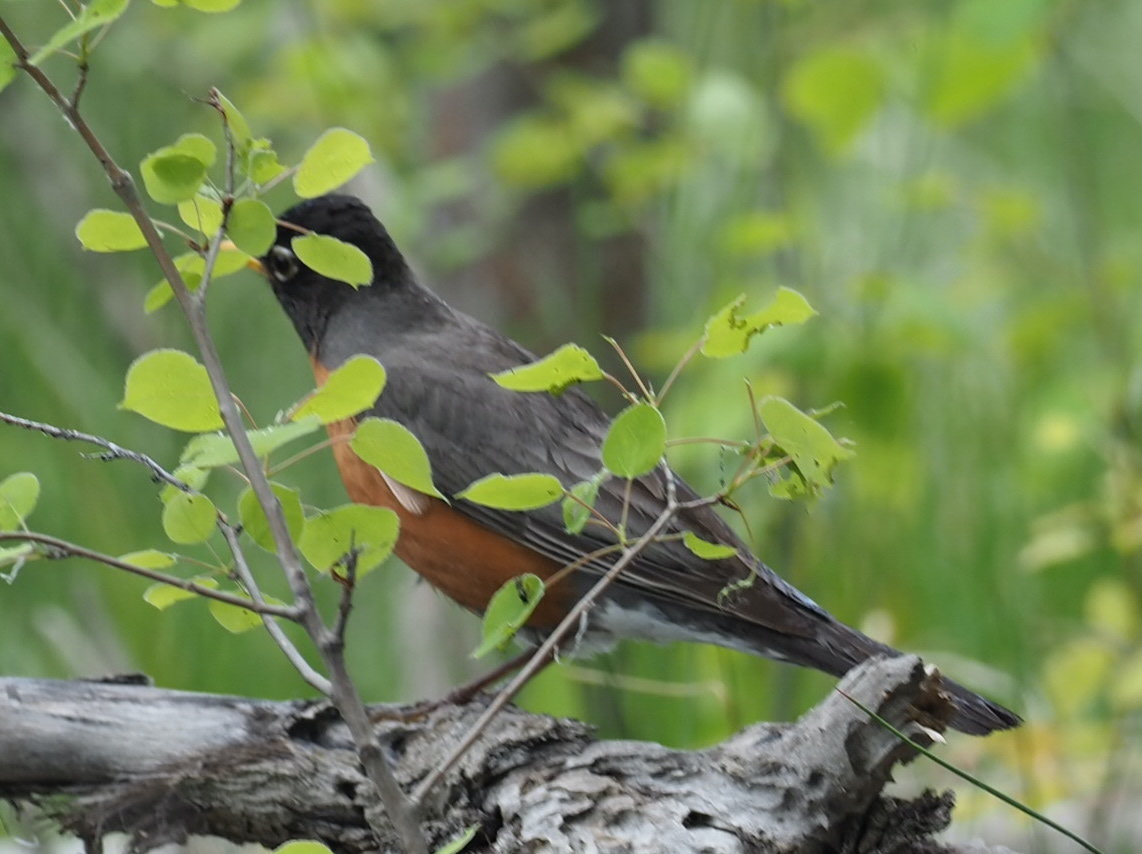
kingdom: Animalia
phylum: Chordata
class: Aves
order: Passeriformes
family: Turdidae
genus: Turdus
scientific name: Turdus migratorius
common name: American robin
